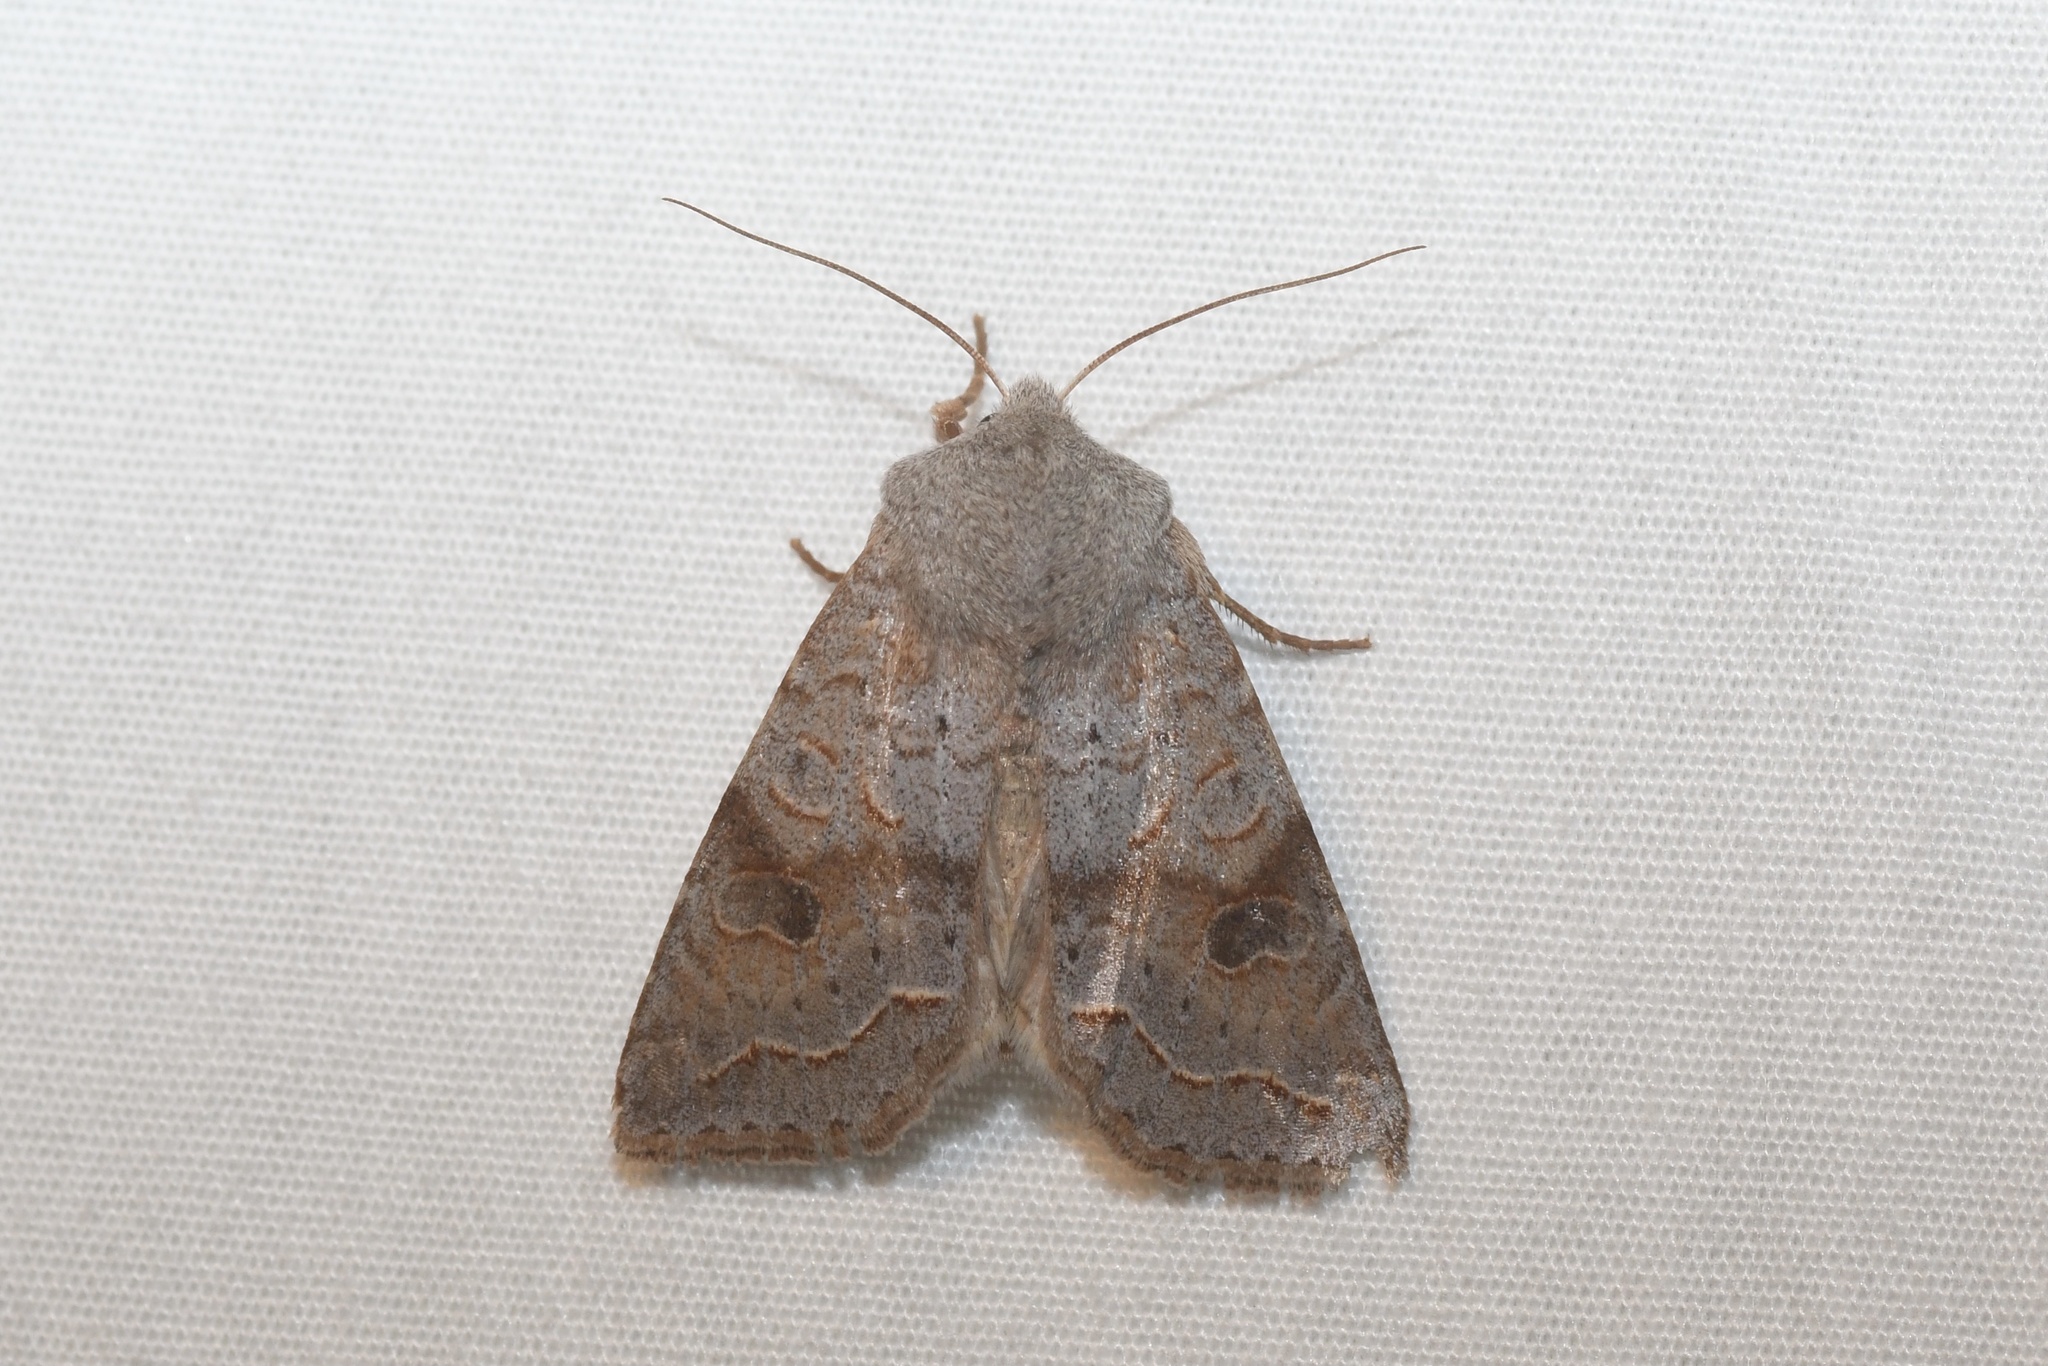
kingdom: Animalia
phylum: Arthropoda
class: Insecta
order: Lepidoptera
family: Noctuidae
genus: Orthosia
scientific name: Orthosia revicta
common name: Rusty whitesided caterpillar
